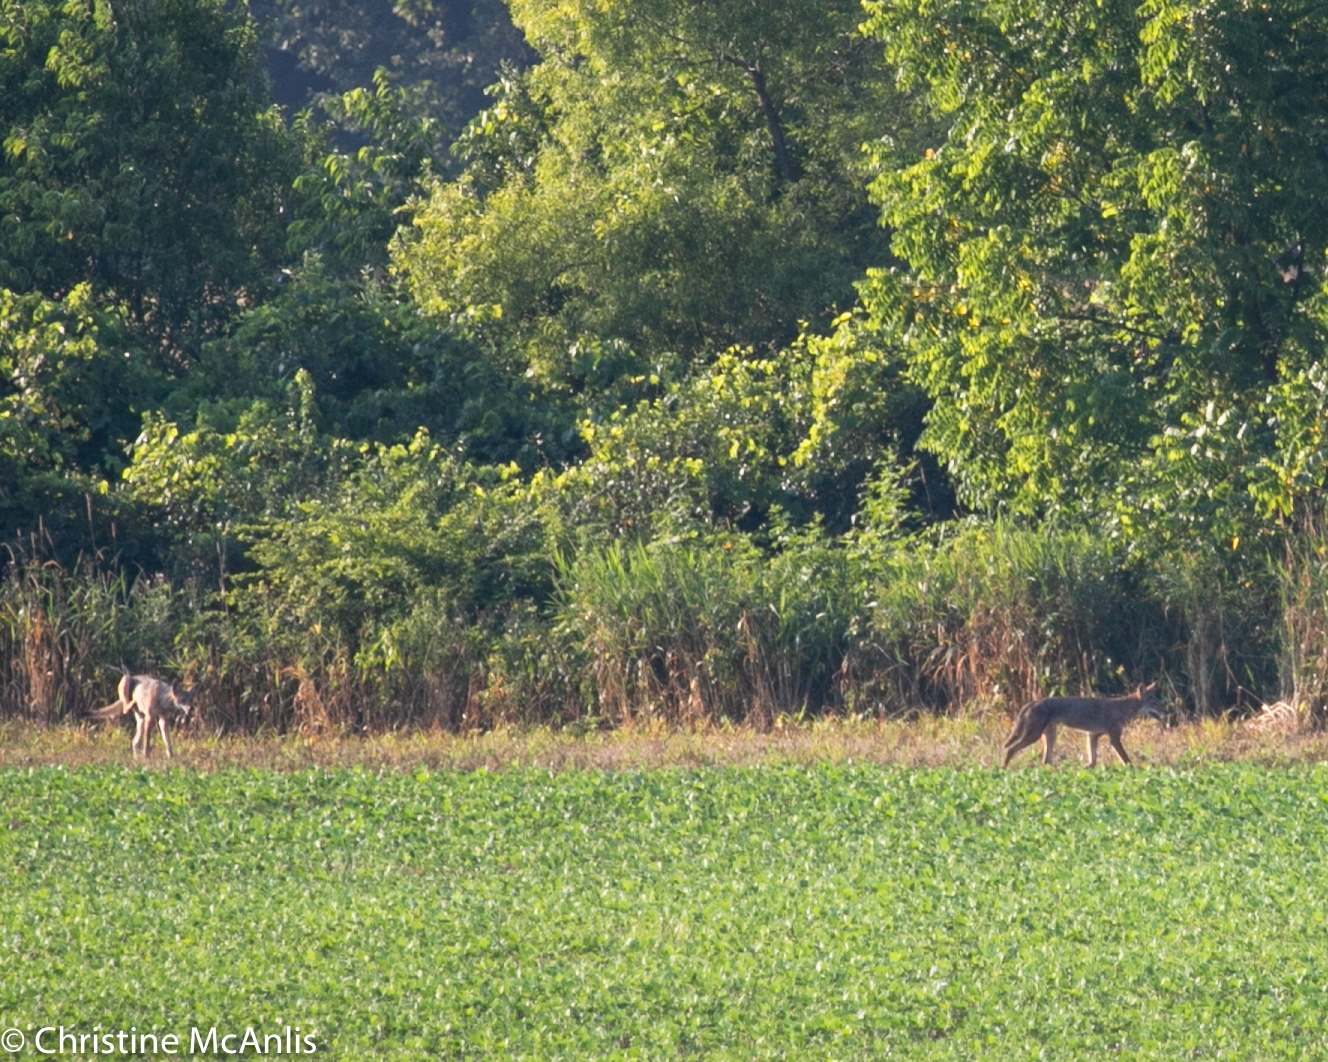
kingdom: Animalia
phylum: Chordata
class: Mammalia
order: Carnivora
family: Canidae
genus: Canis
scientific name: Canis latrans
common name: Coyote
